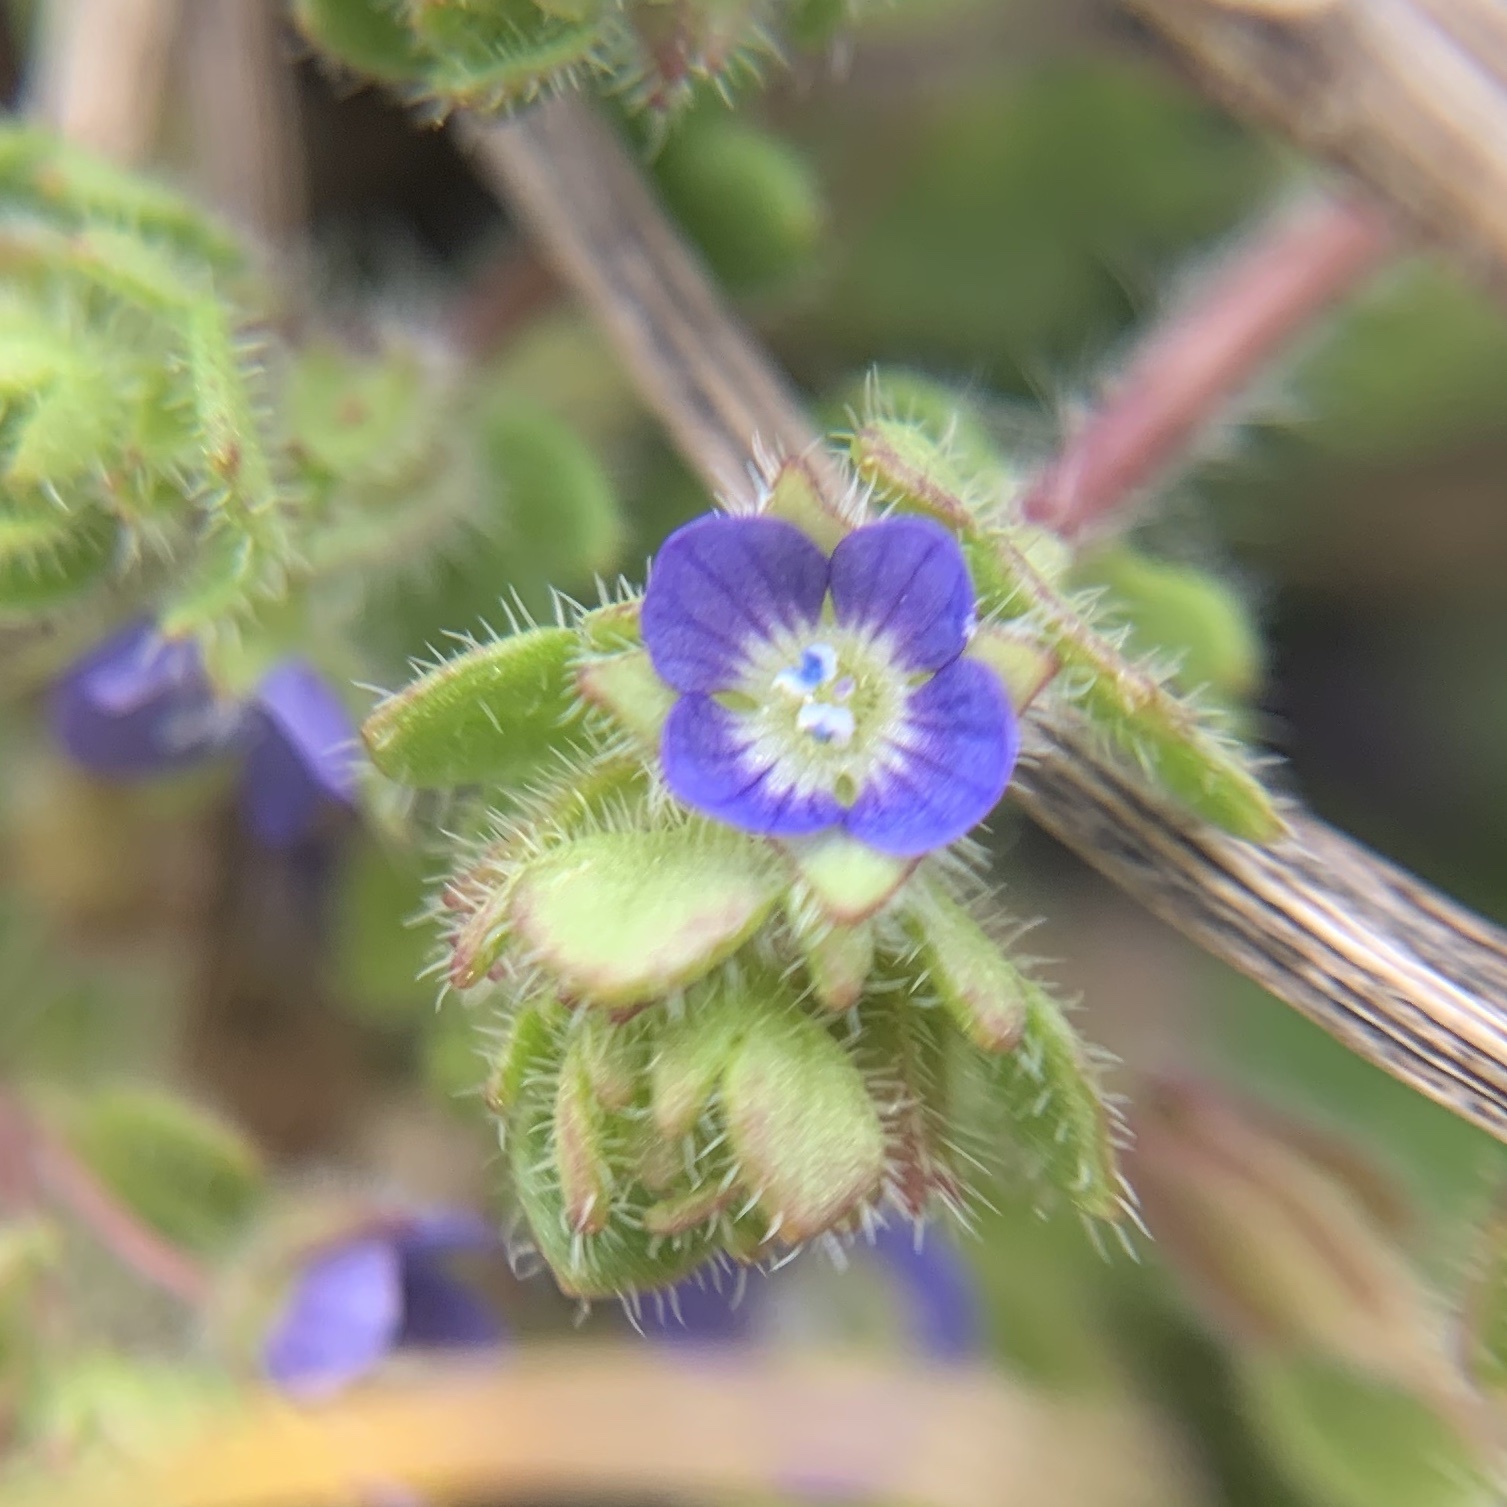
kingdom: Plantae
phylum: Tracheophyta
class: Magnoliopsida
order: Lamiales
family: Plantaginaceae
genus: Veronica
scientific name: Veronica hederifolia
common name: Ivy-leaved speedwell
